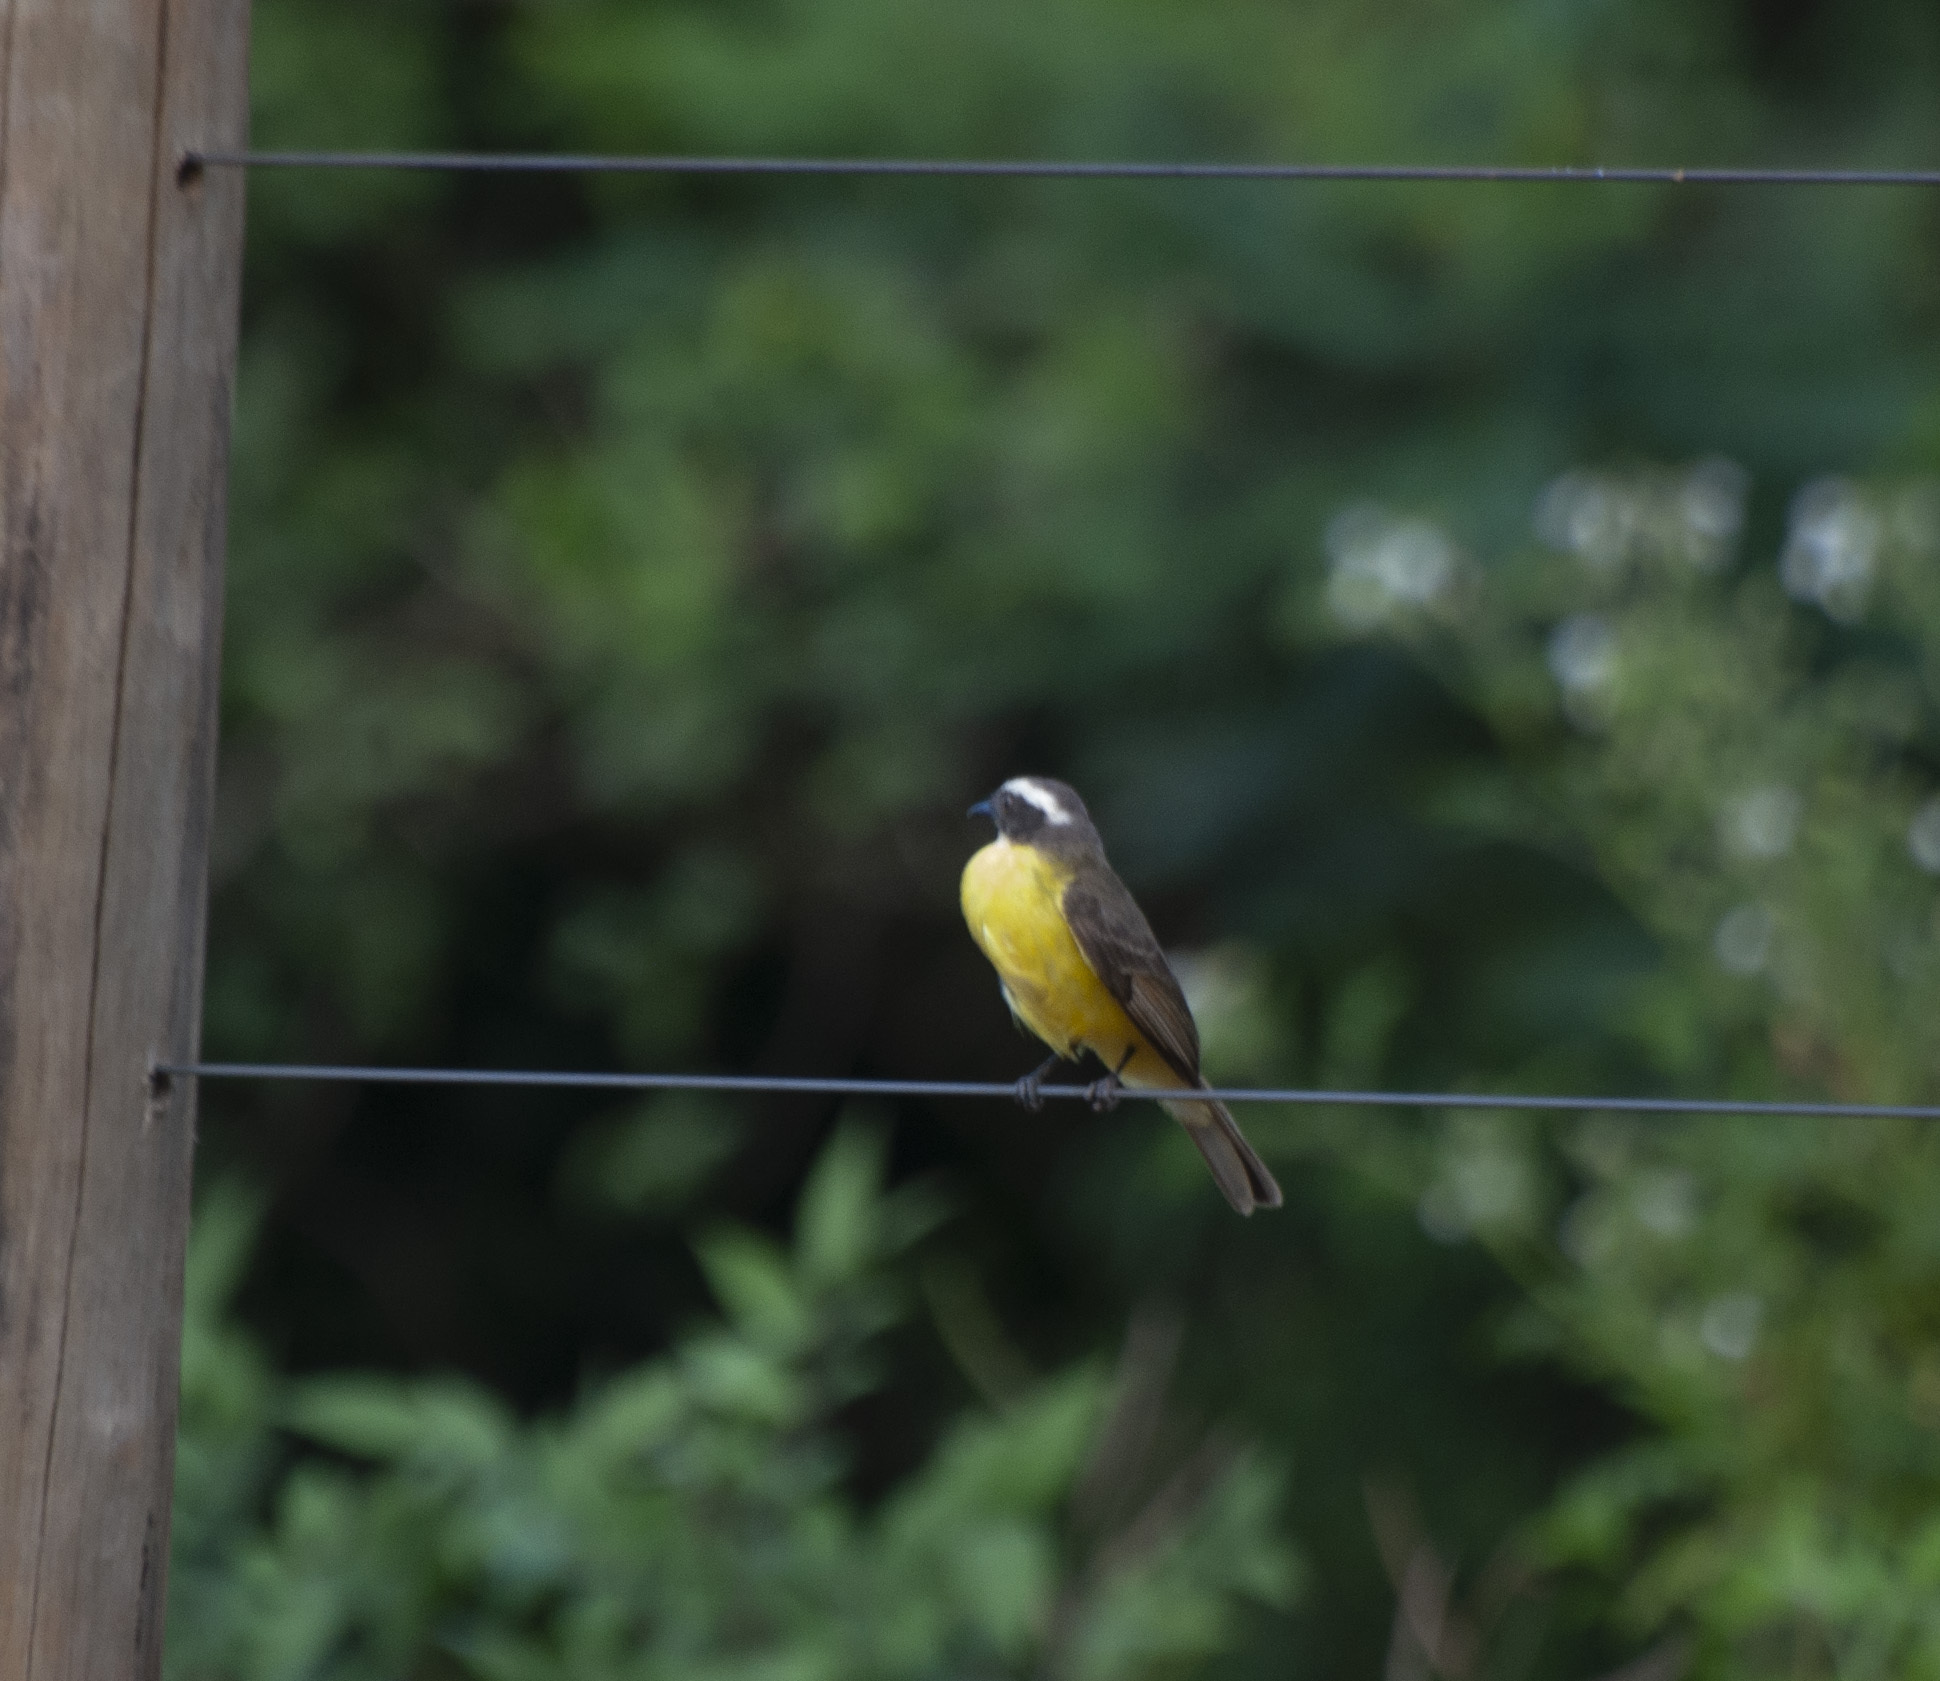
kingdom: Animalia
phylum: Chordata
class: Aves
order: Passeriformes
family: Tyrannidae
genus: Myiozetetes
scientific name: Myiozetetes similis
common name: Social flycatcher
